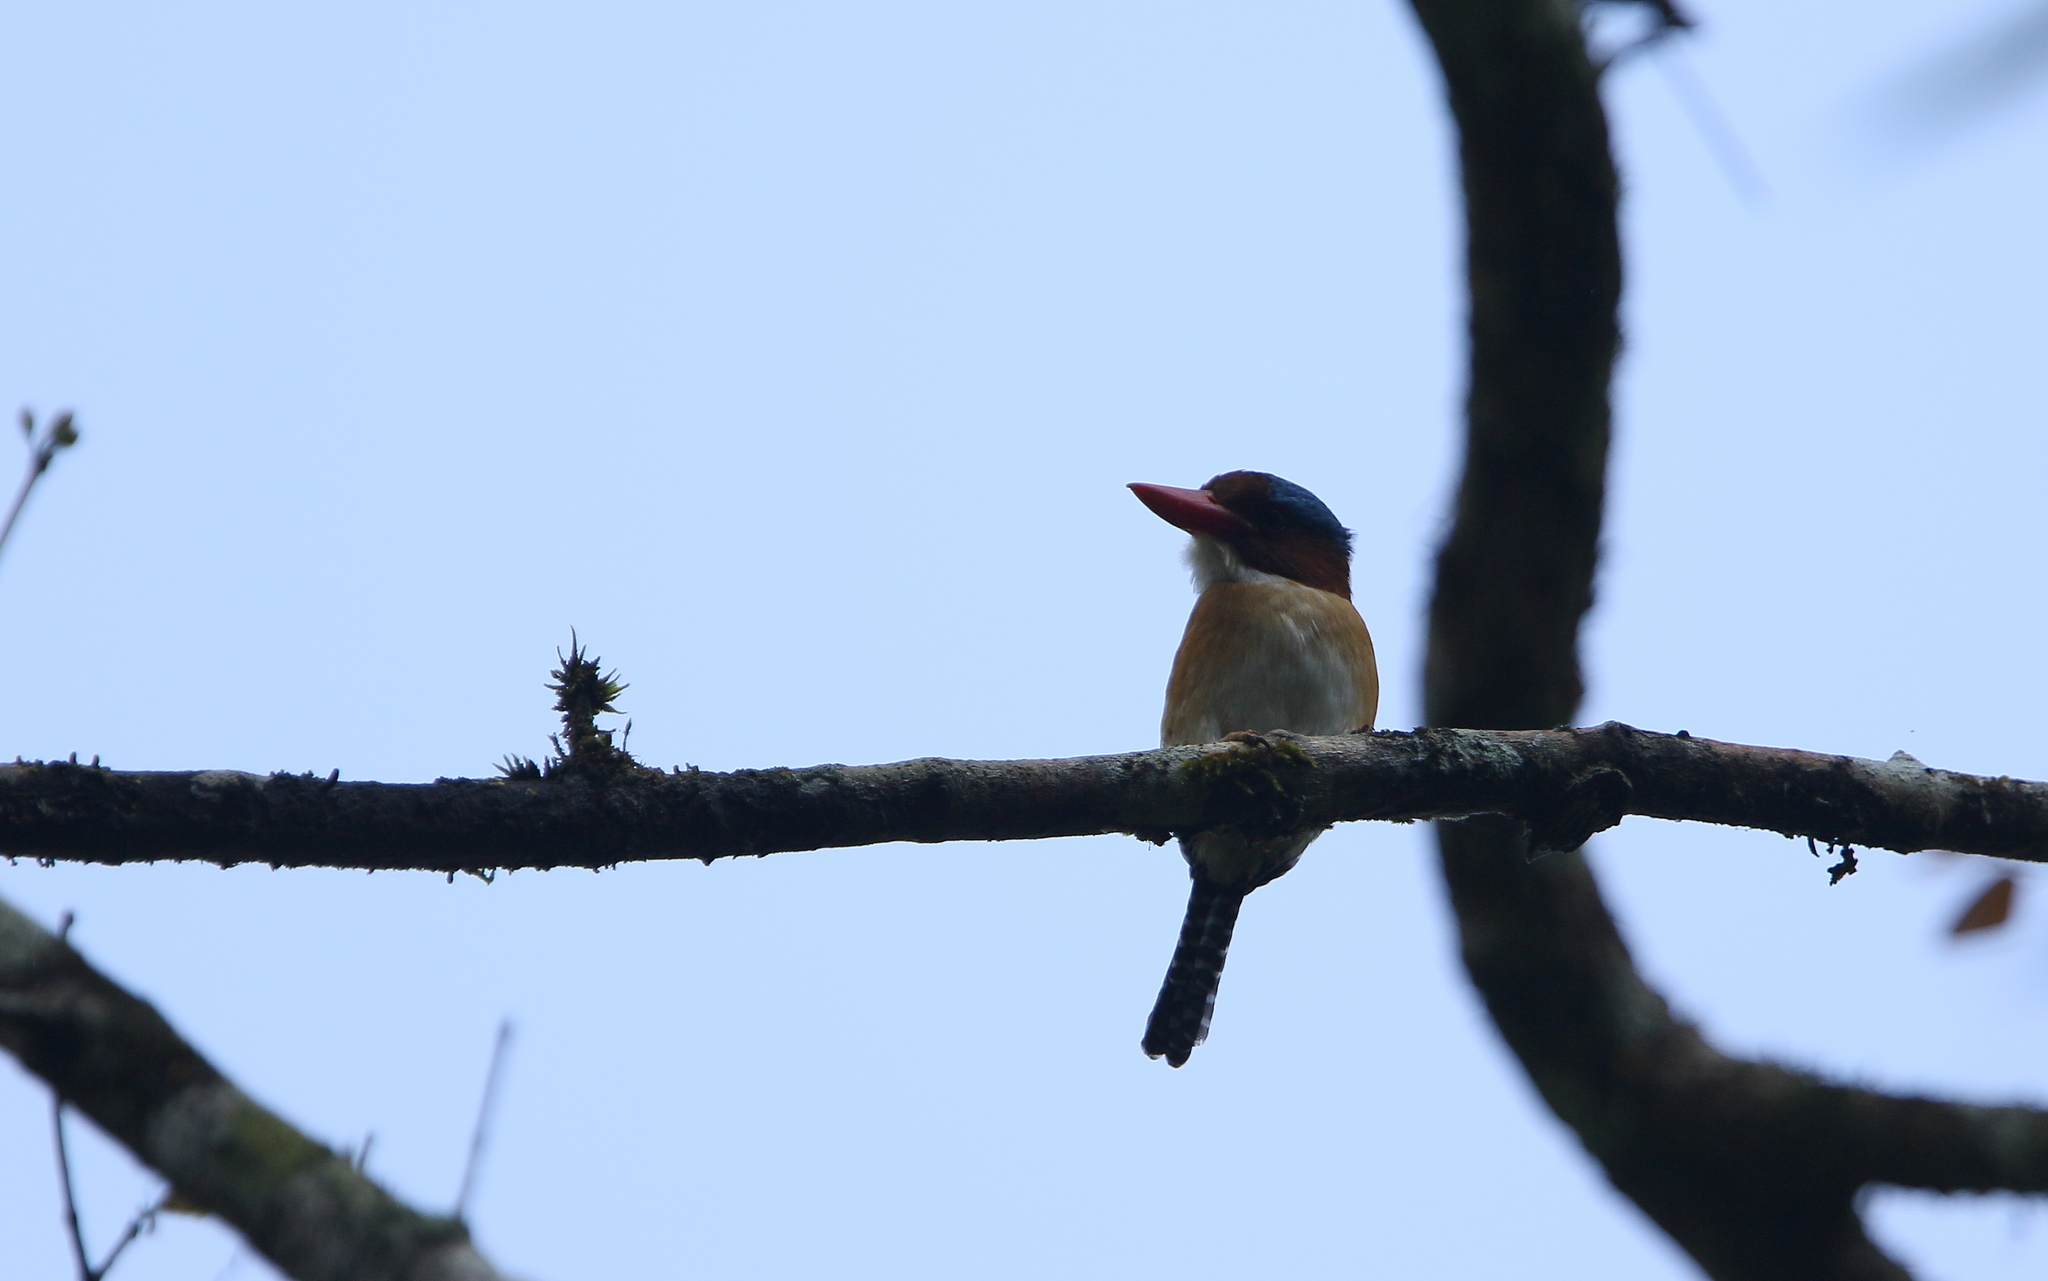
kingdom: Animalia
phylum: Chordata
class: Aves
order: Coraciiformes
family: Alcedinidae
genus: Lacedo
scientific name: Lacedo pulchella
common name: Banded kingfisher
